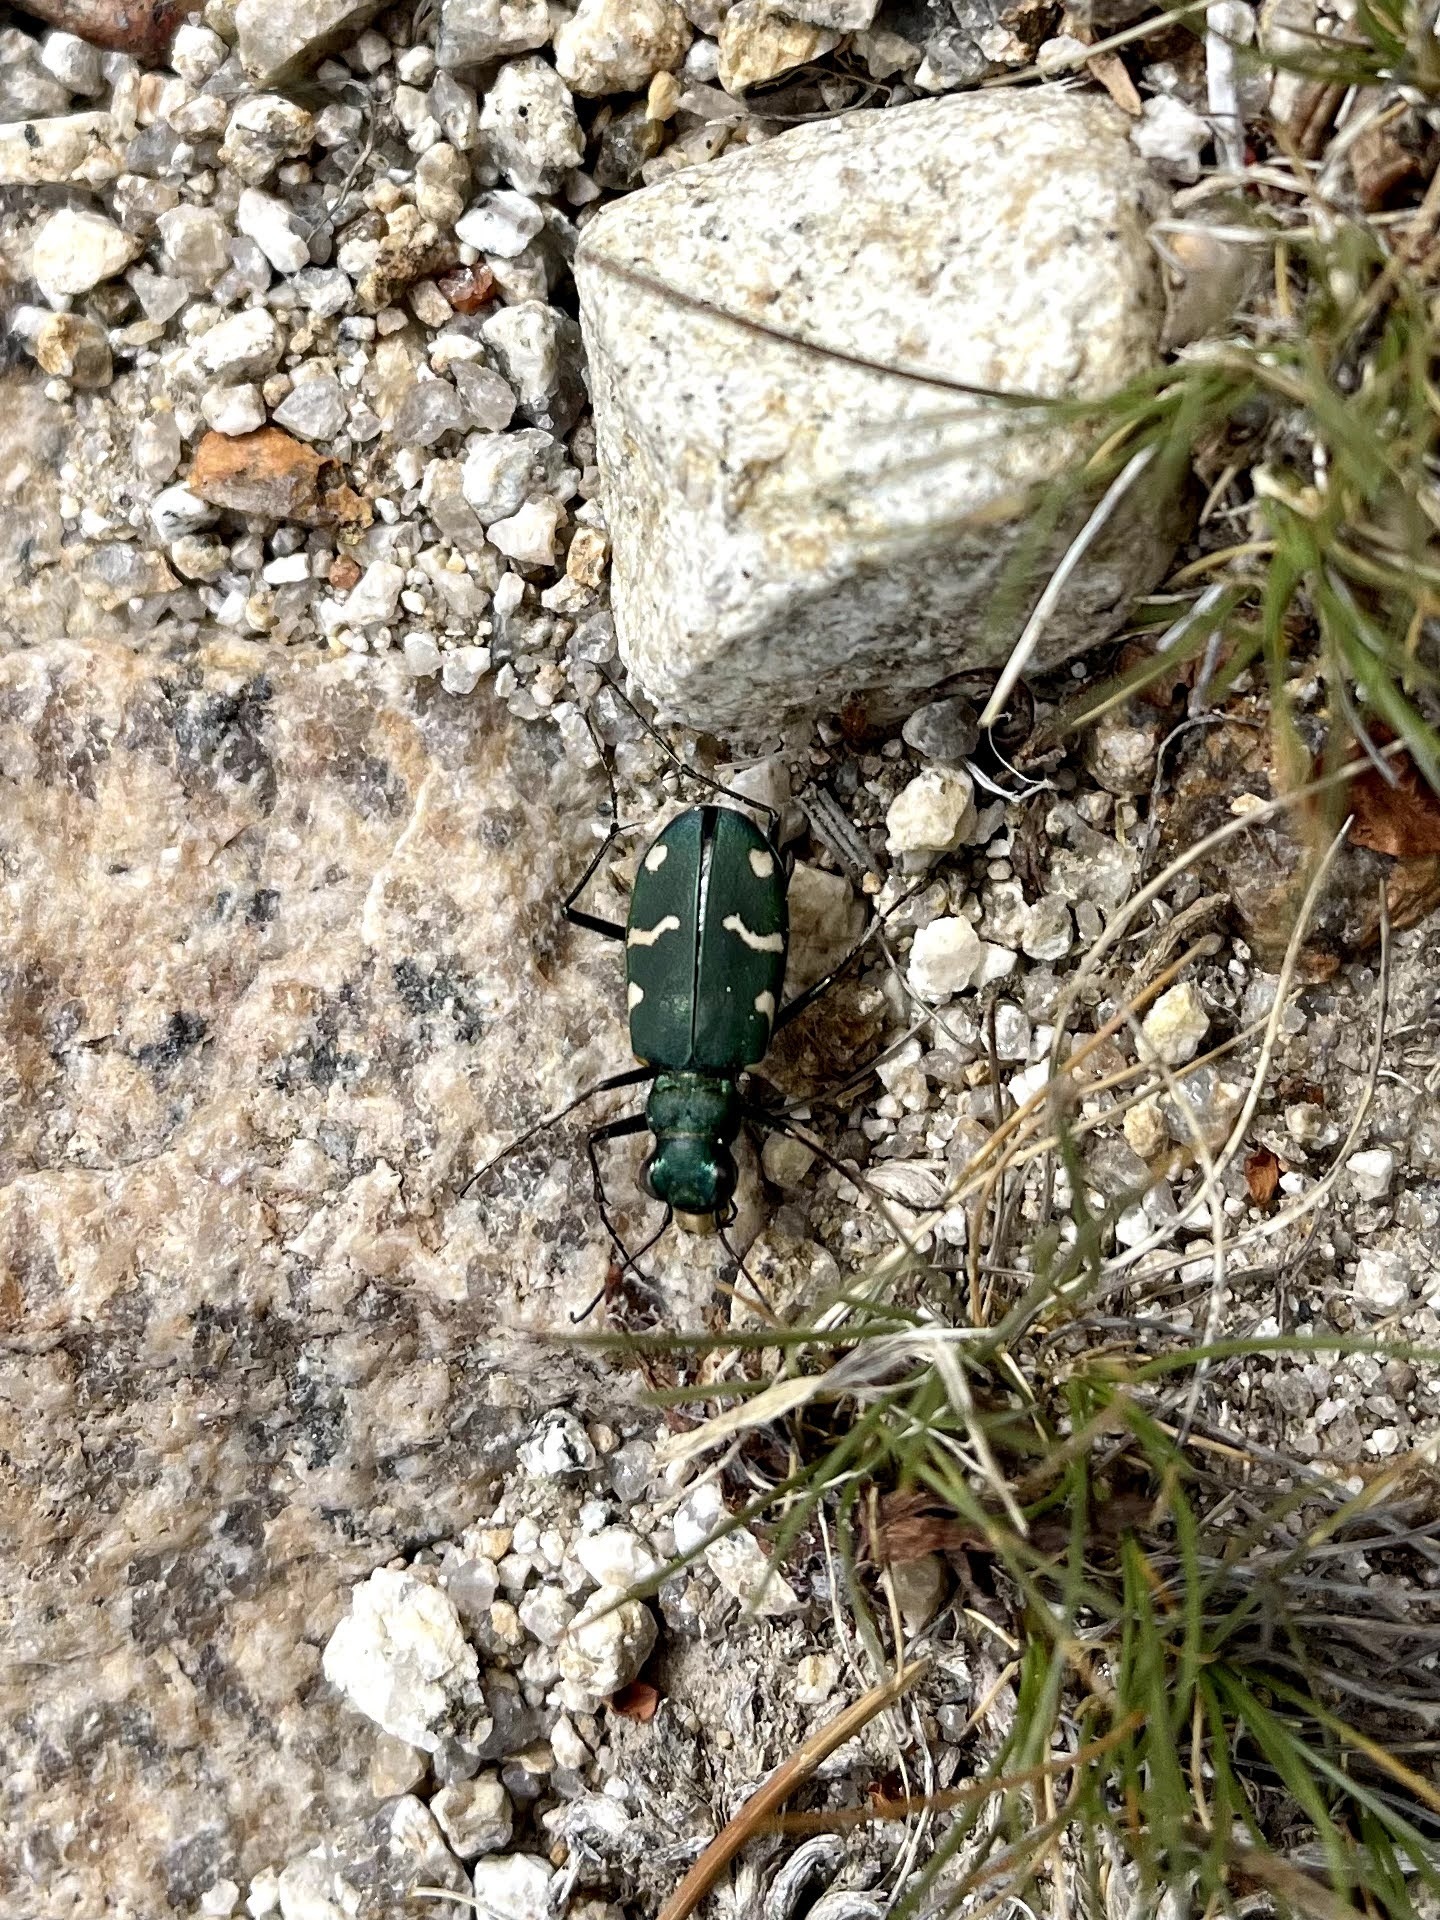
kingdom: Animalia
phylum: Arthropoda
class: Insecta
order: Coleoptera
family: Carabidae
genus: Cicindela
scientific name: Cicindela longilabris
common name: Boreal long-lipped tiger beetle
